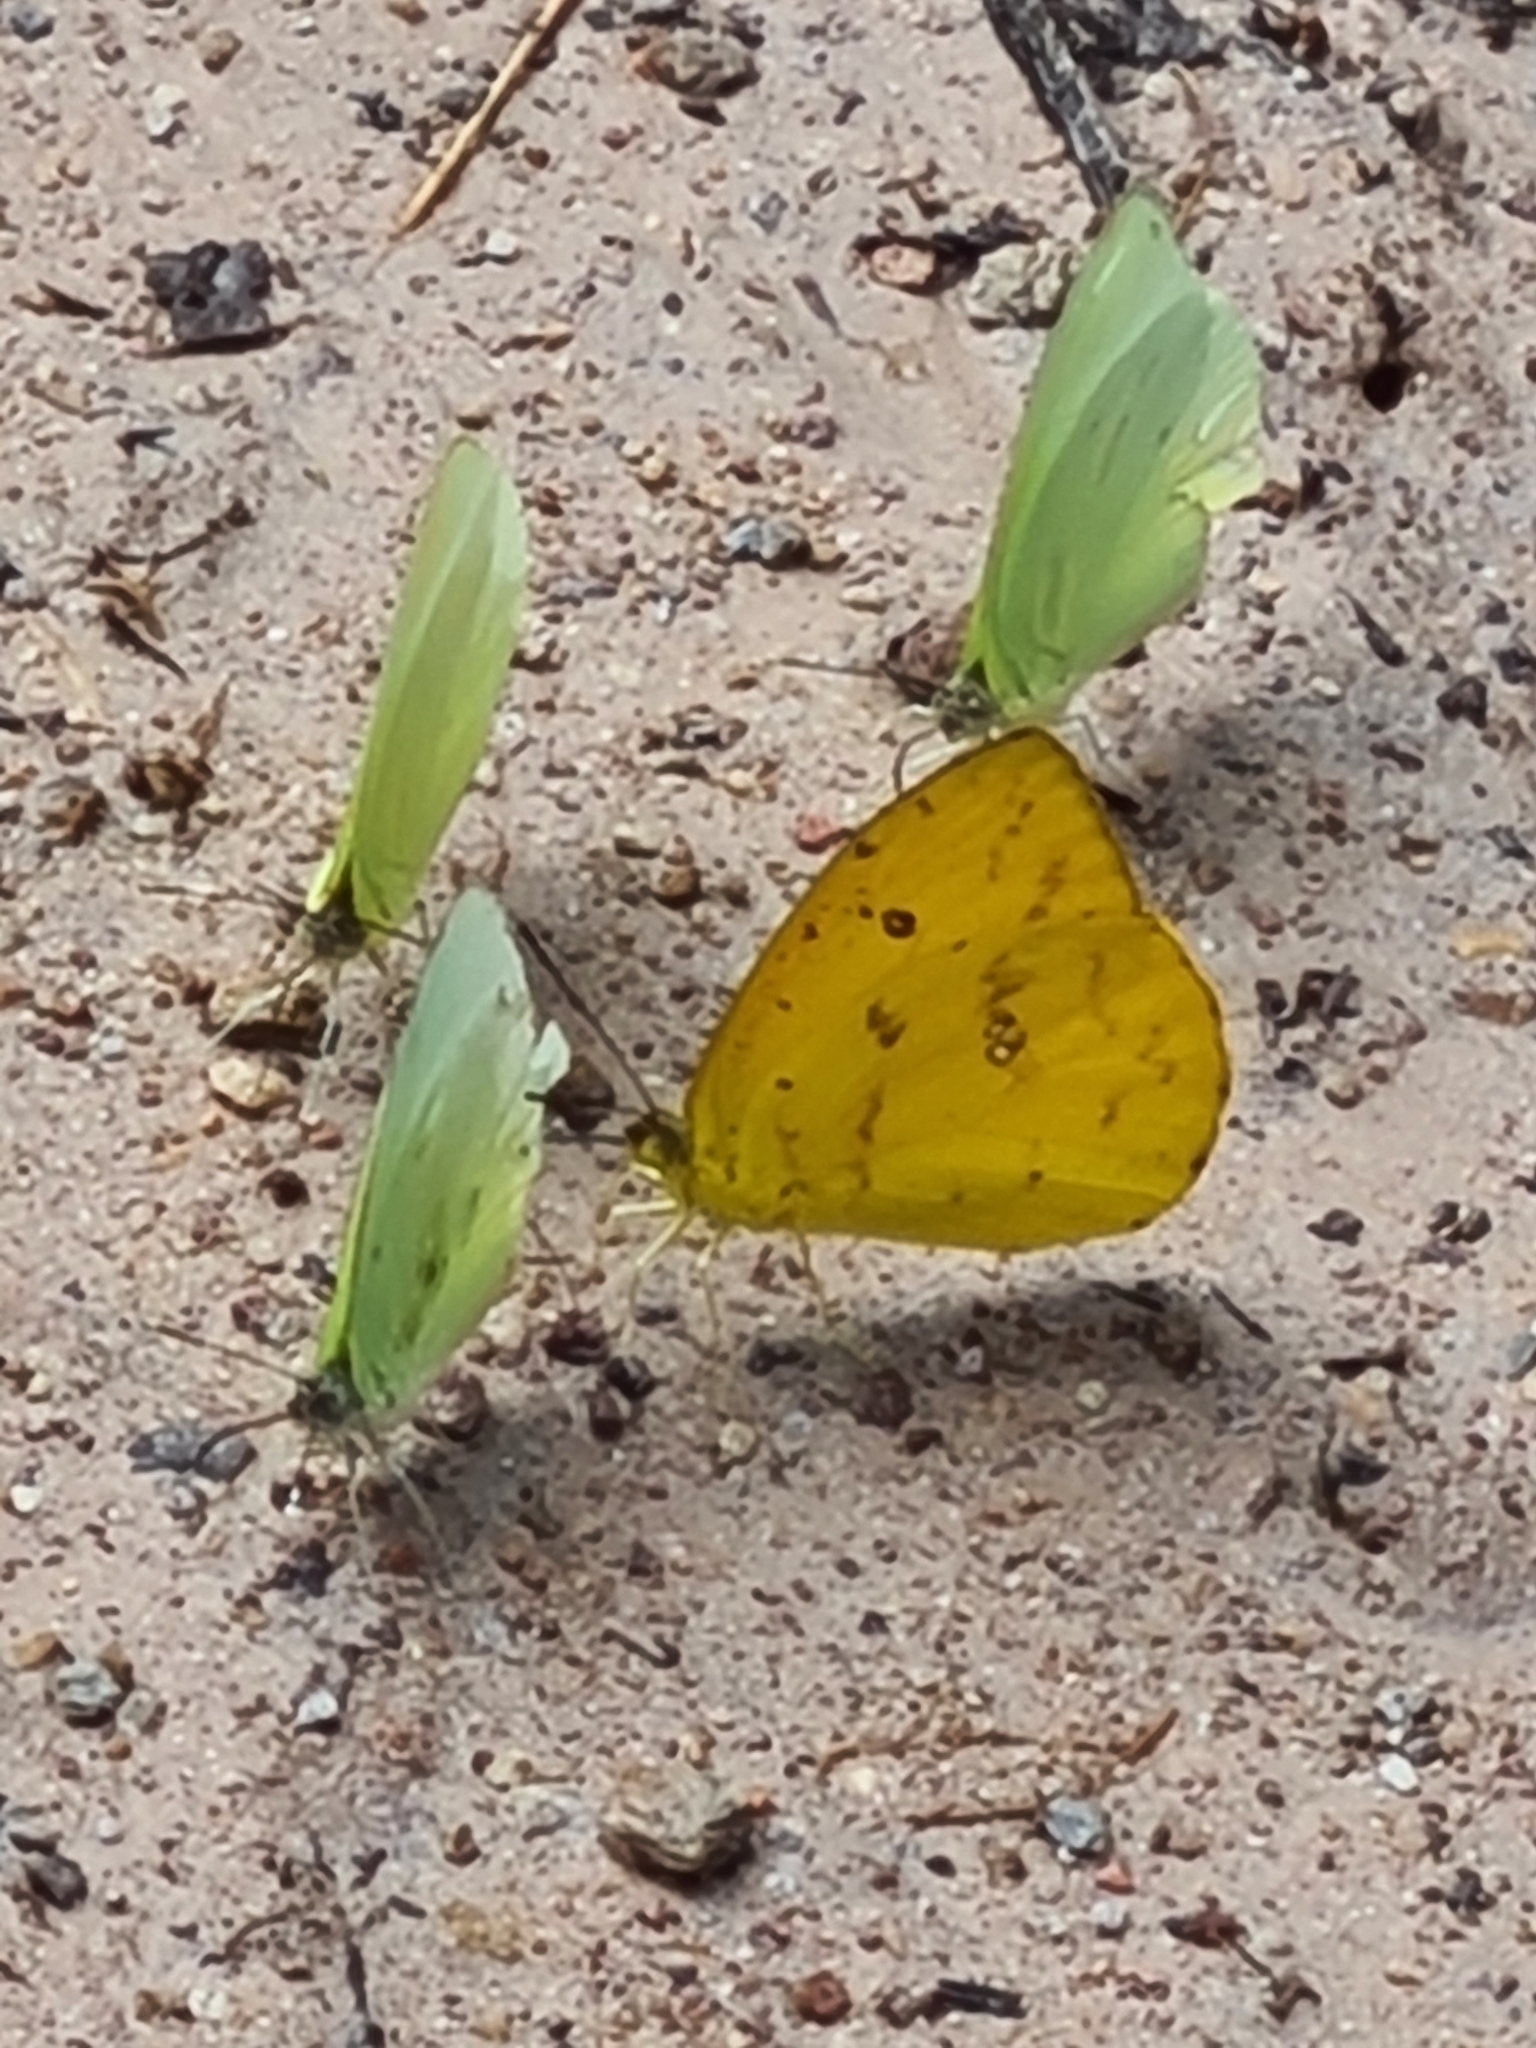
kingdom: Animalia
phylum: Arthropoda
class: Insecta
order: Lepidoptera
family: Pieridae
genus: Aphrissa
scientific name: Aphrissa statira
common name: Statira sulphur
